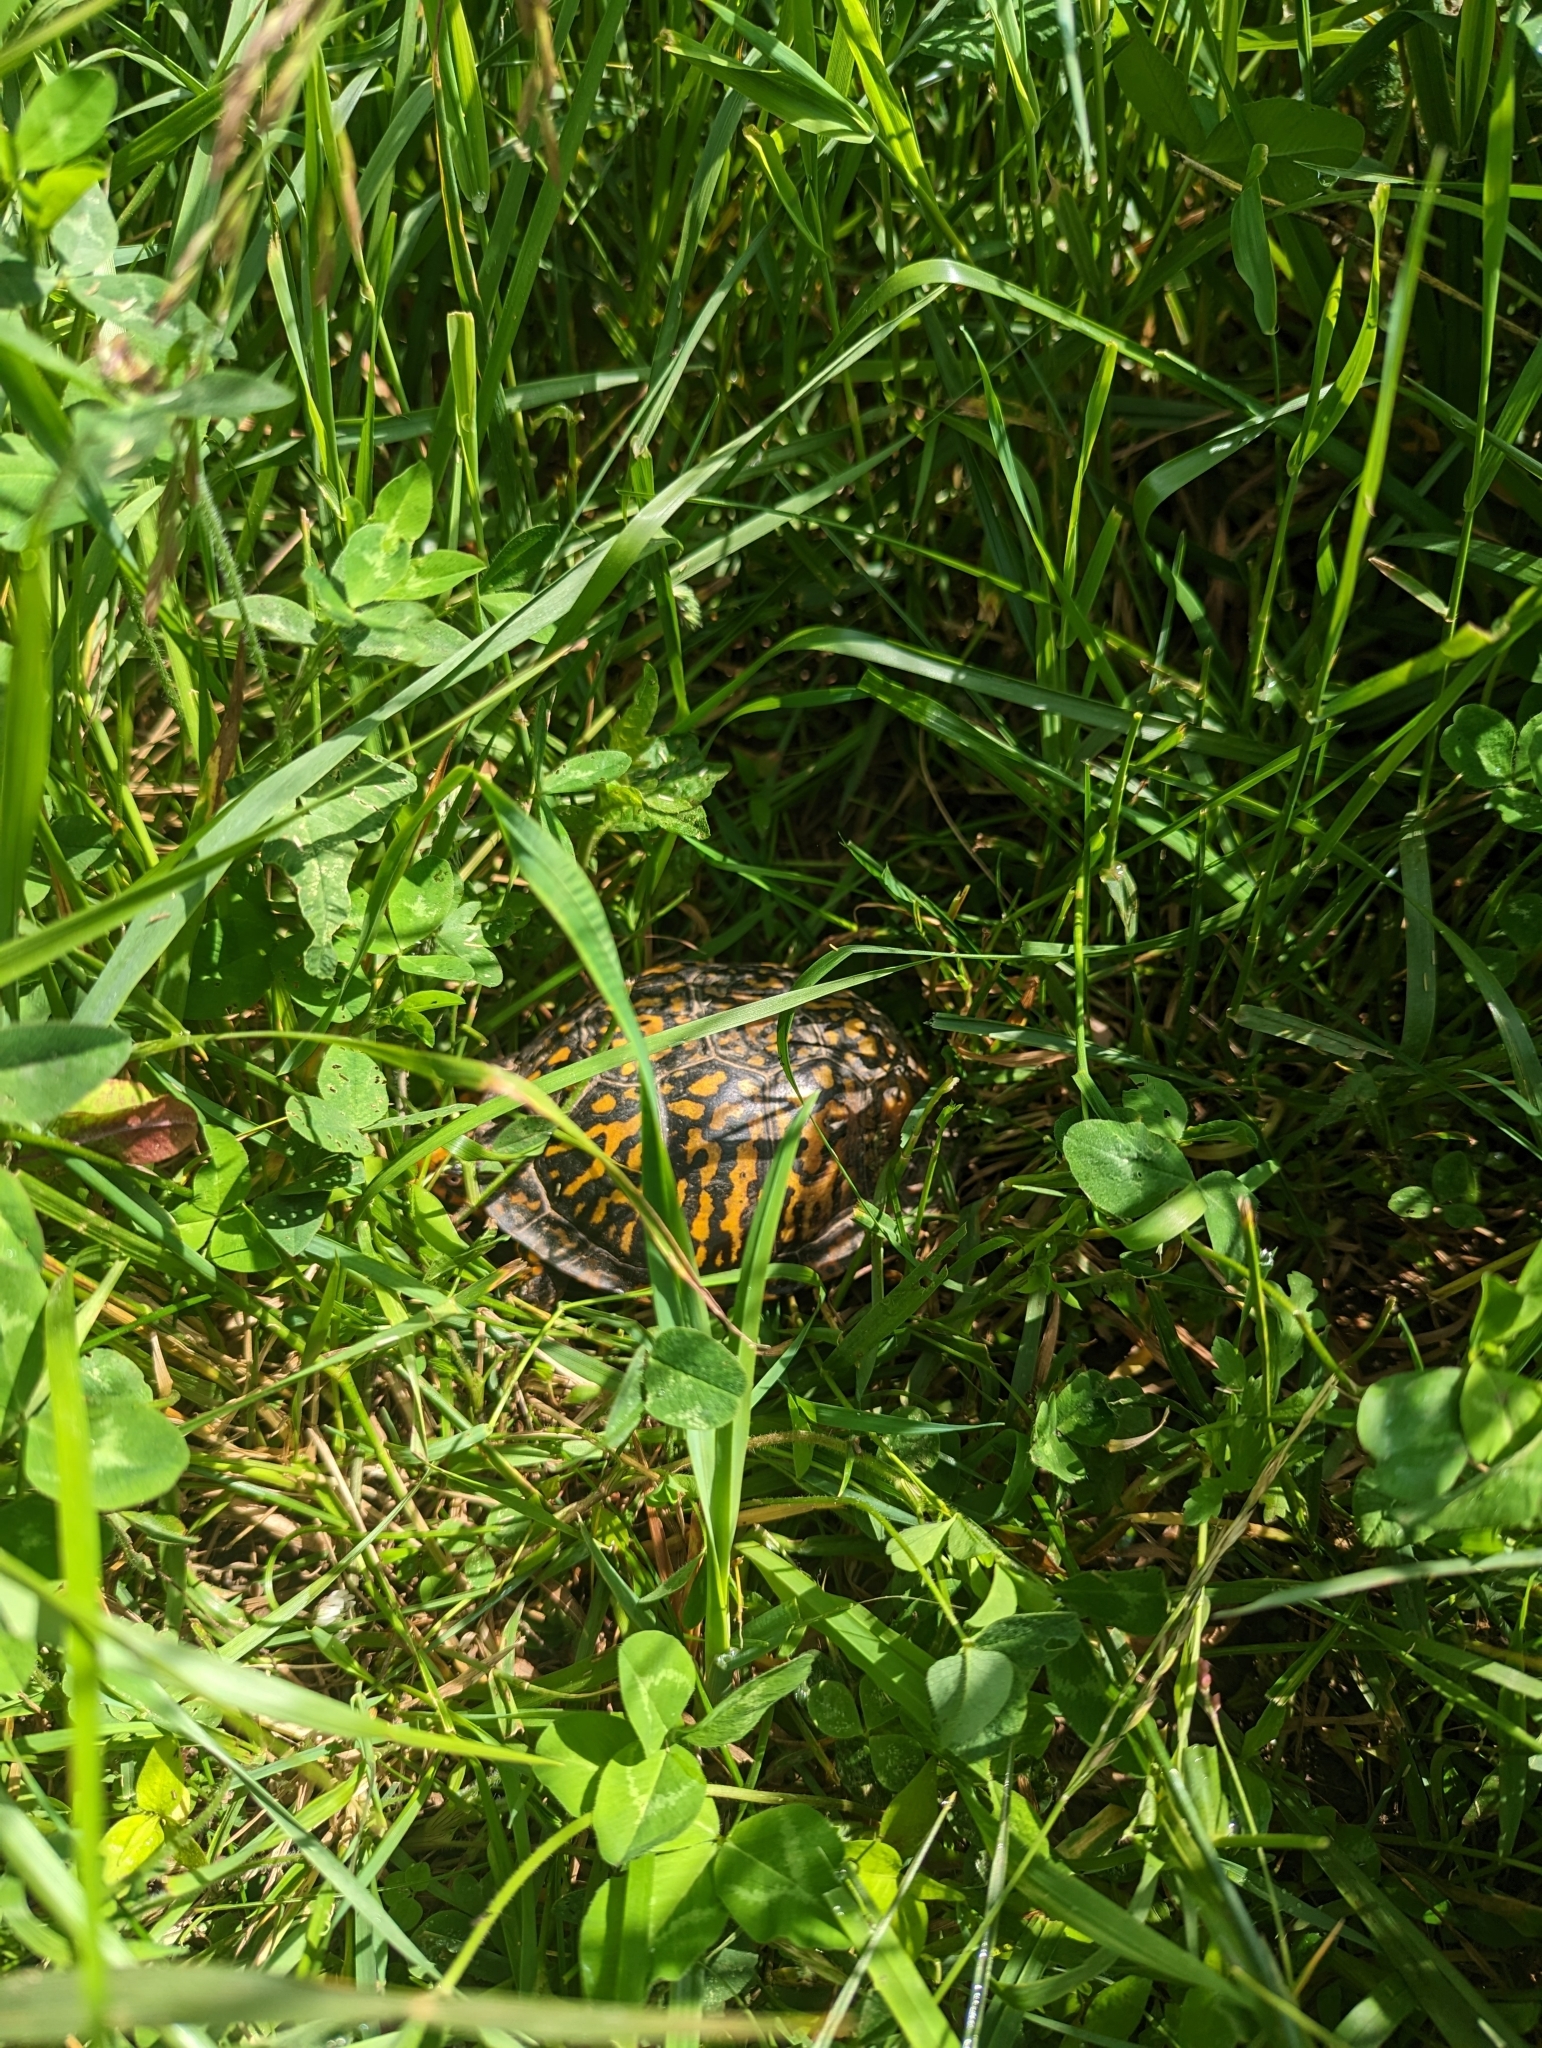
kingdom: Animalia
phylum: Chordata
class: Testudines
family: Emydidae
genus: Terrapene
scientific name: Terrapene carolina
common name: Common box turtle
